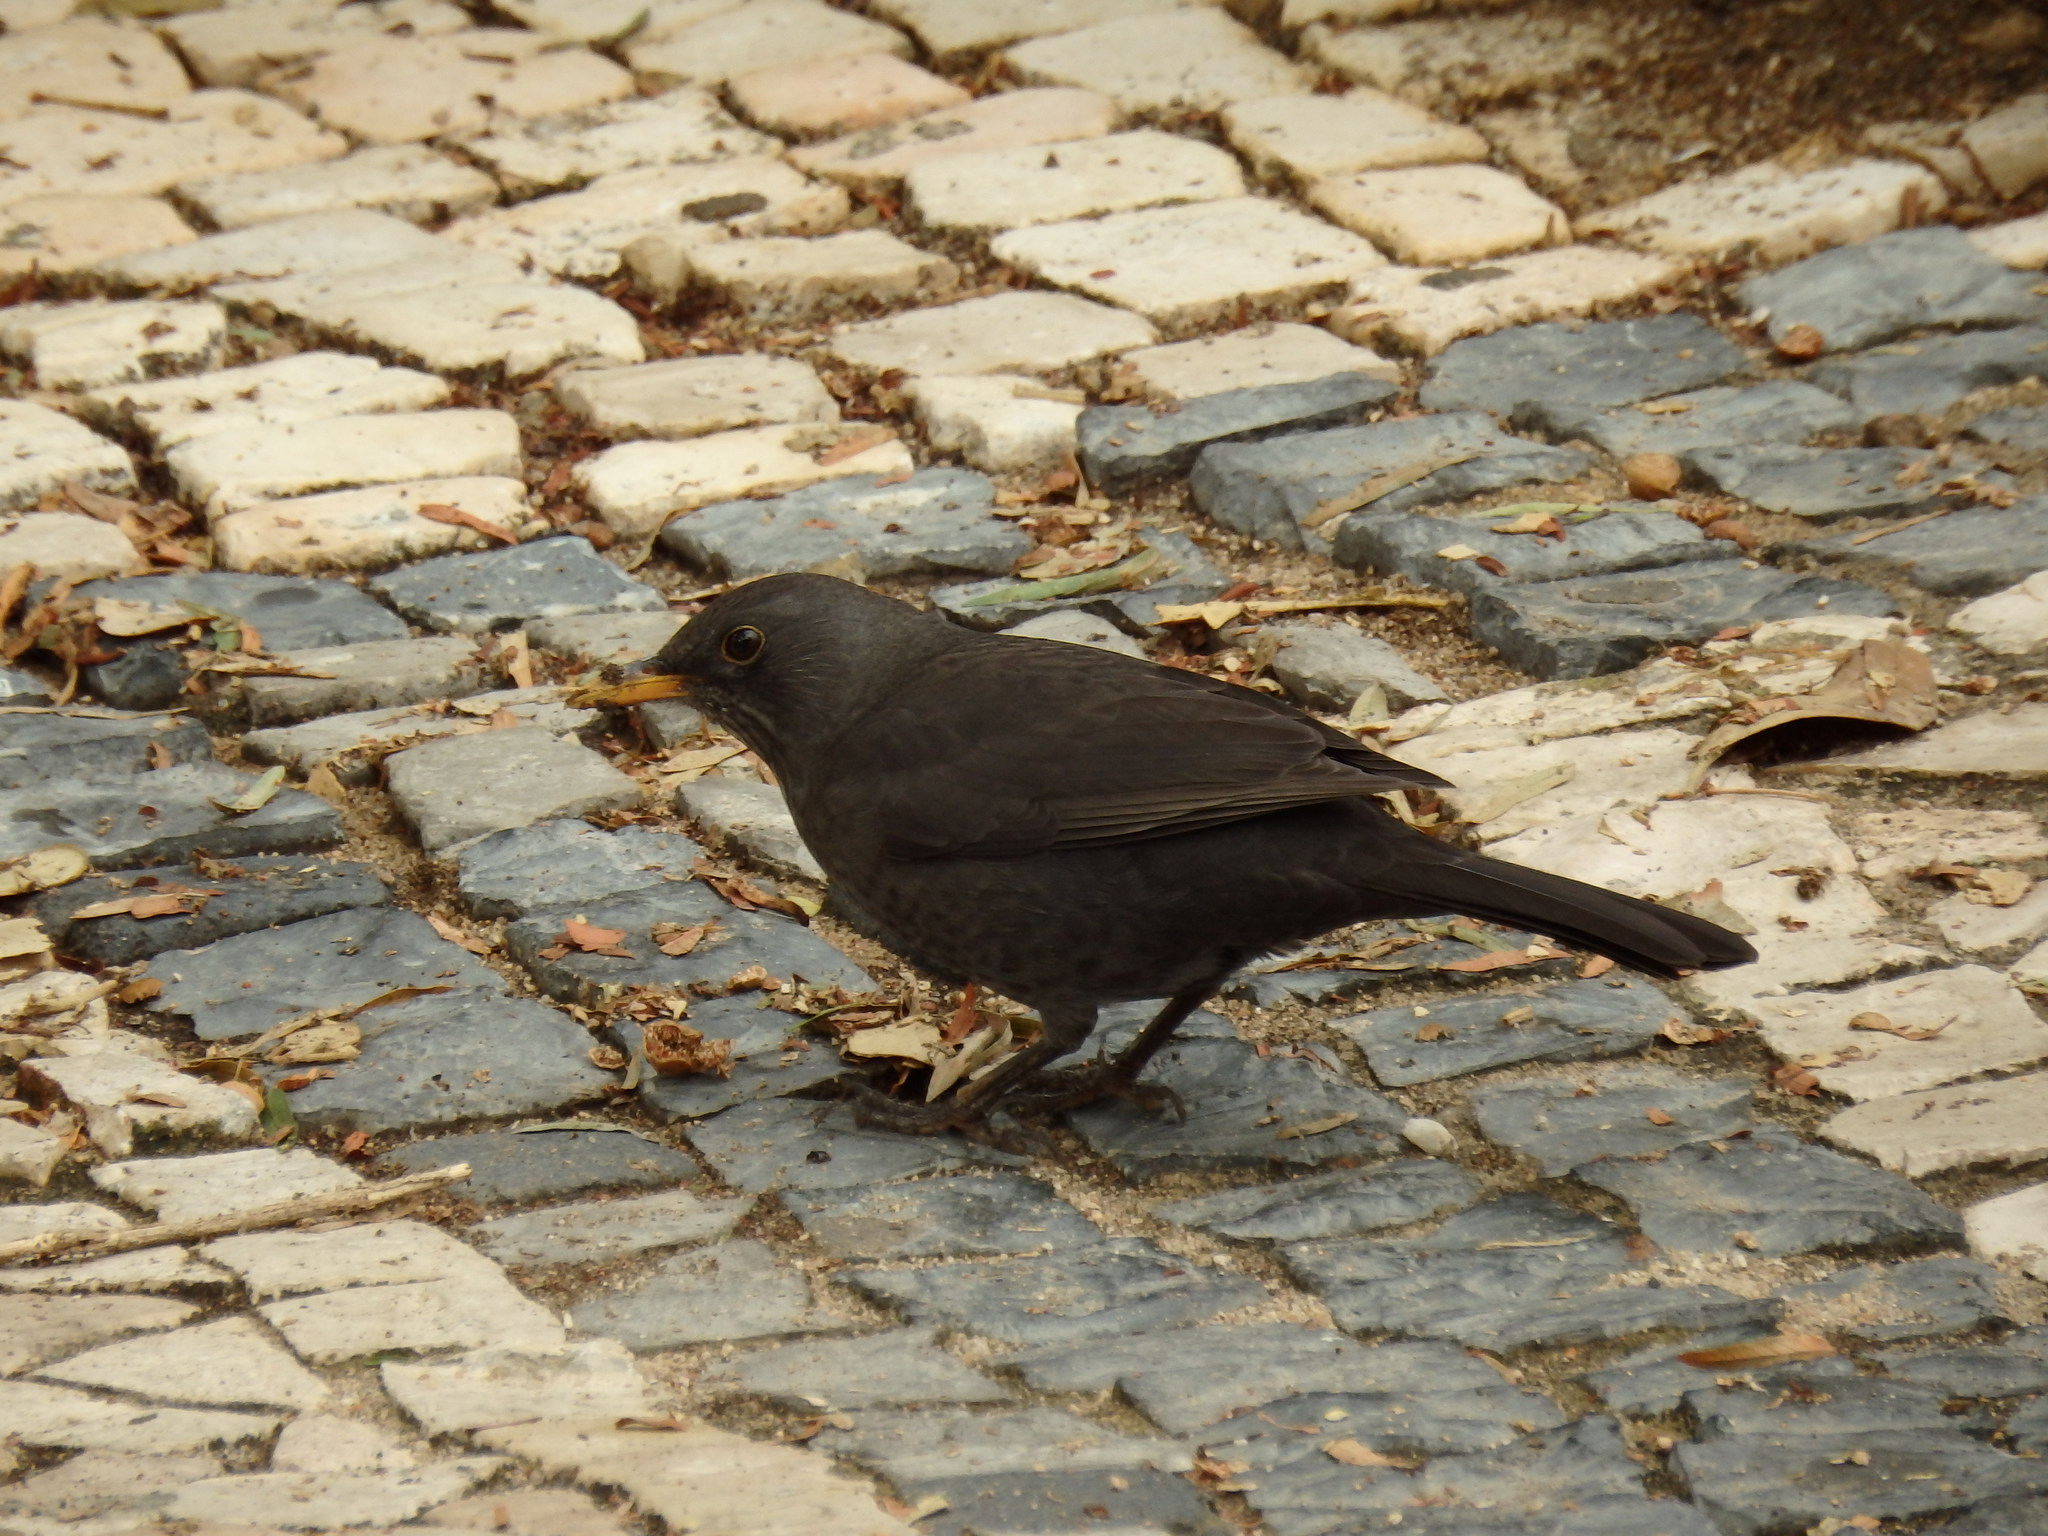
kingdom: Animalia
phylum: Chordata
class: Aves
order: Passeriformes
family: Turdidae
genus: Turdus
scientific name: Turdus merula
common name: Common blackbird
